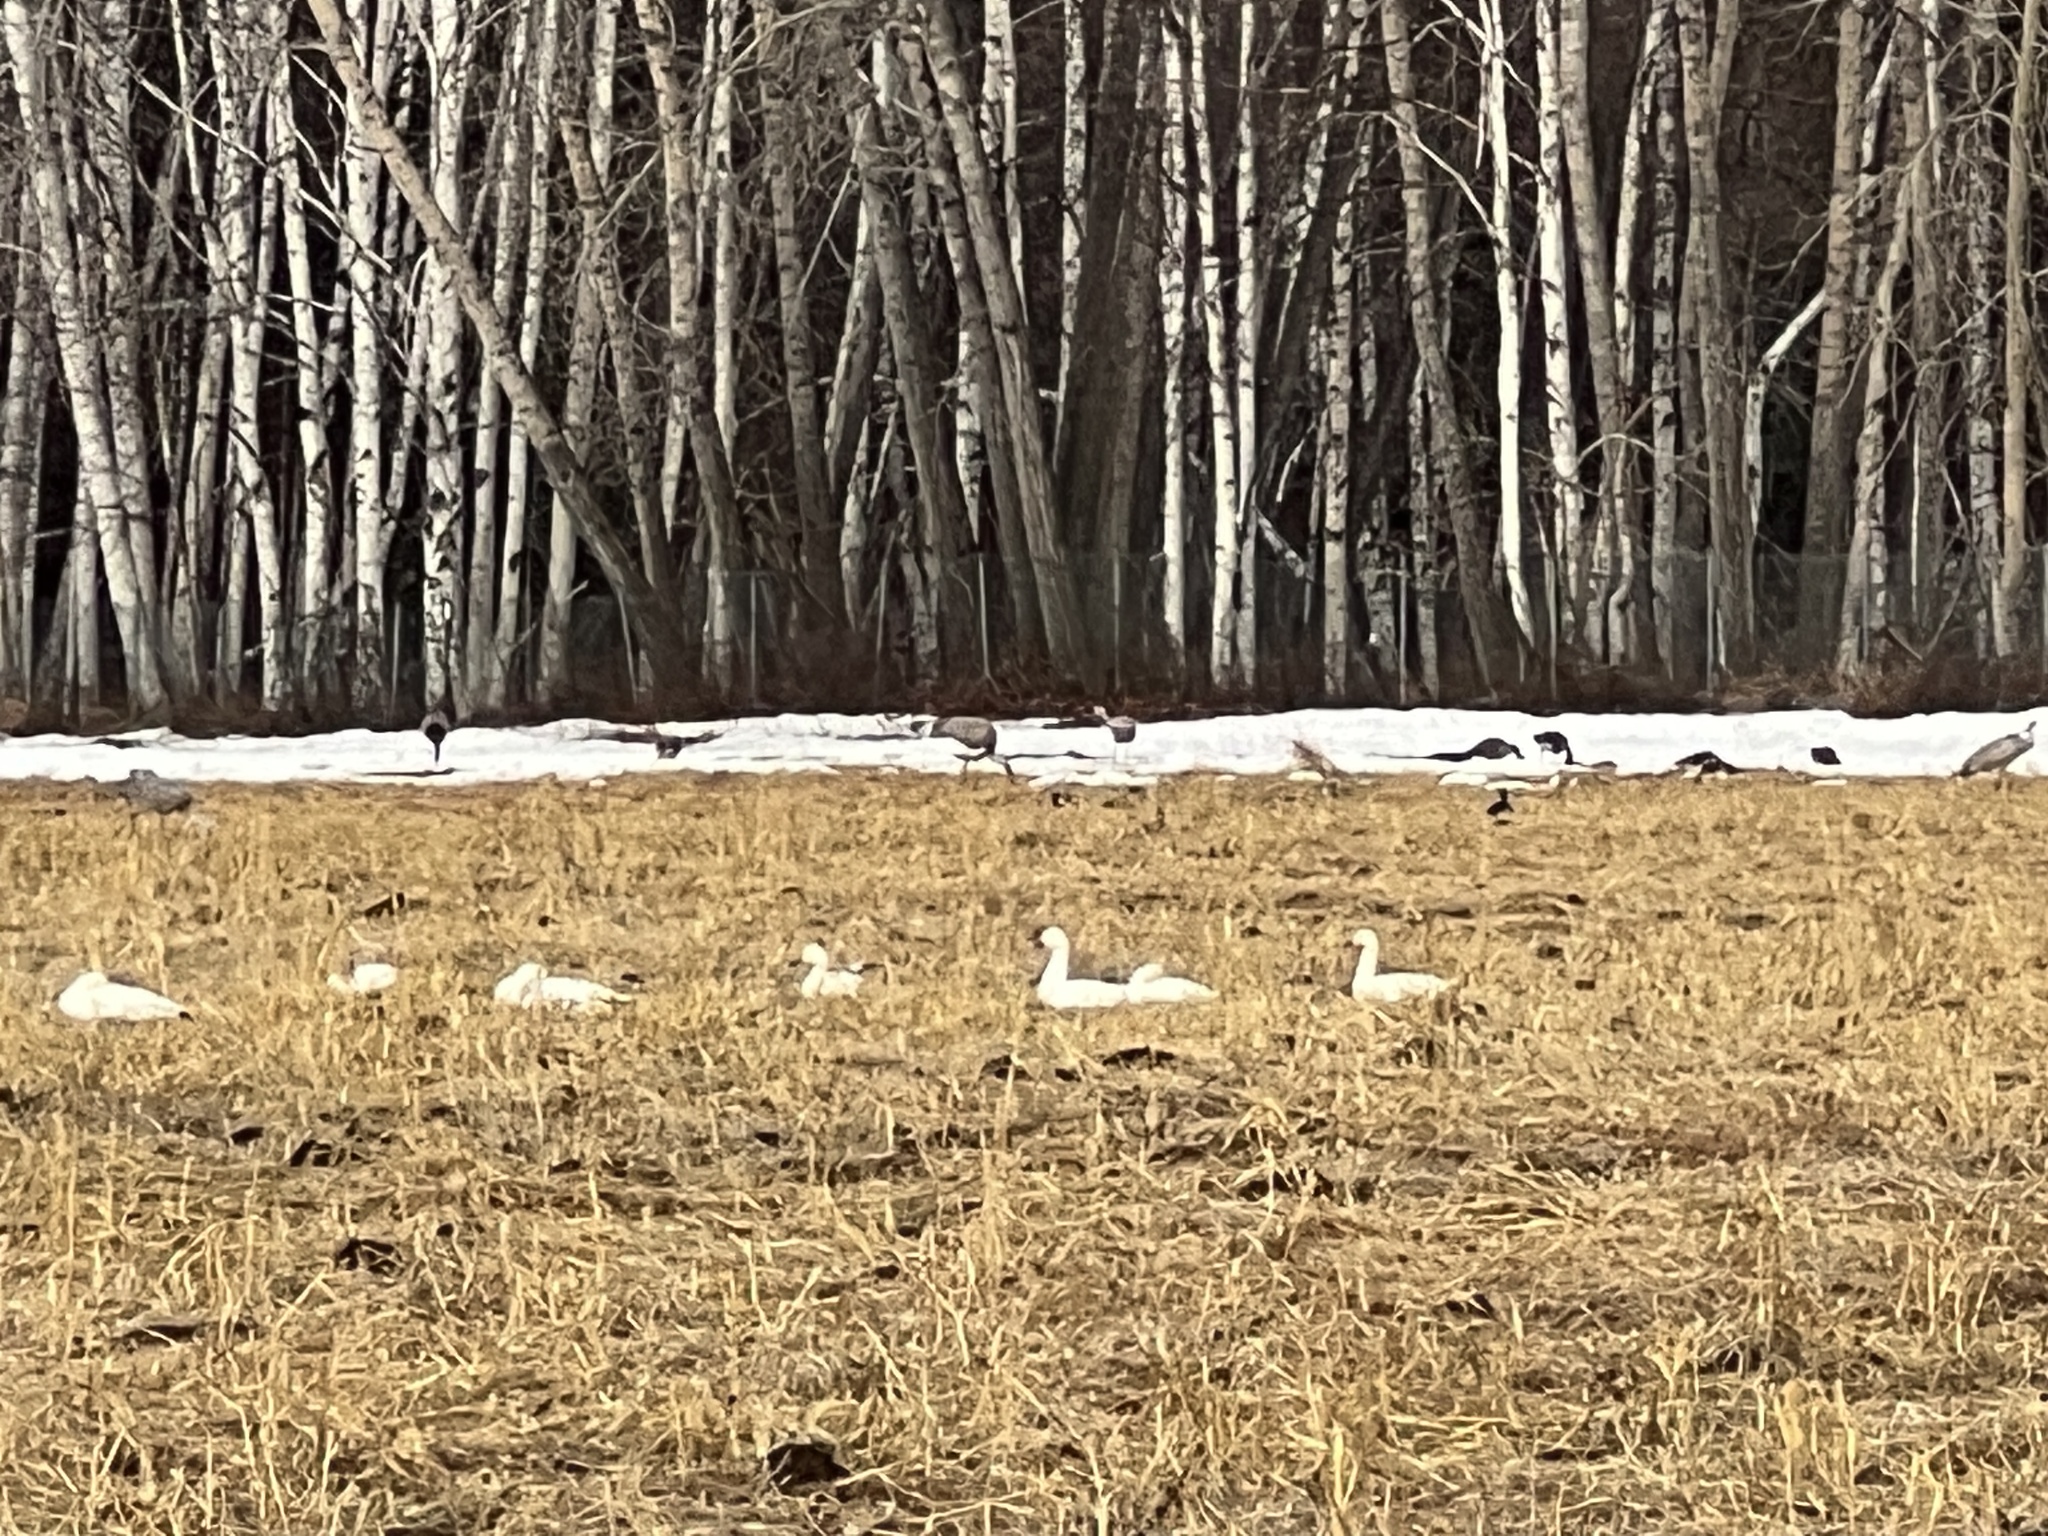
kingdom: Animalia
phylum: Chordata
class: Aves
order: Anseriformes
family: Anatidae
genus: Anser
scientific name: Anser caerulescens
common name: Snow goose
